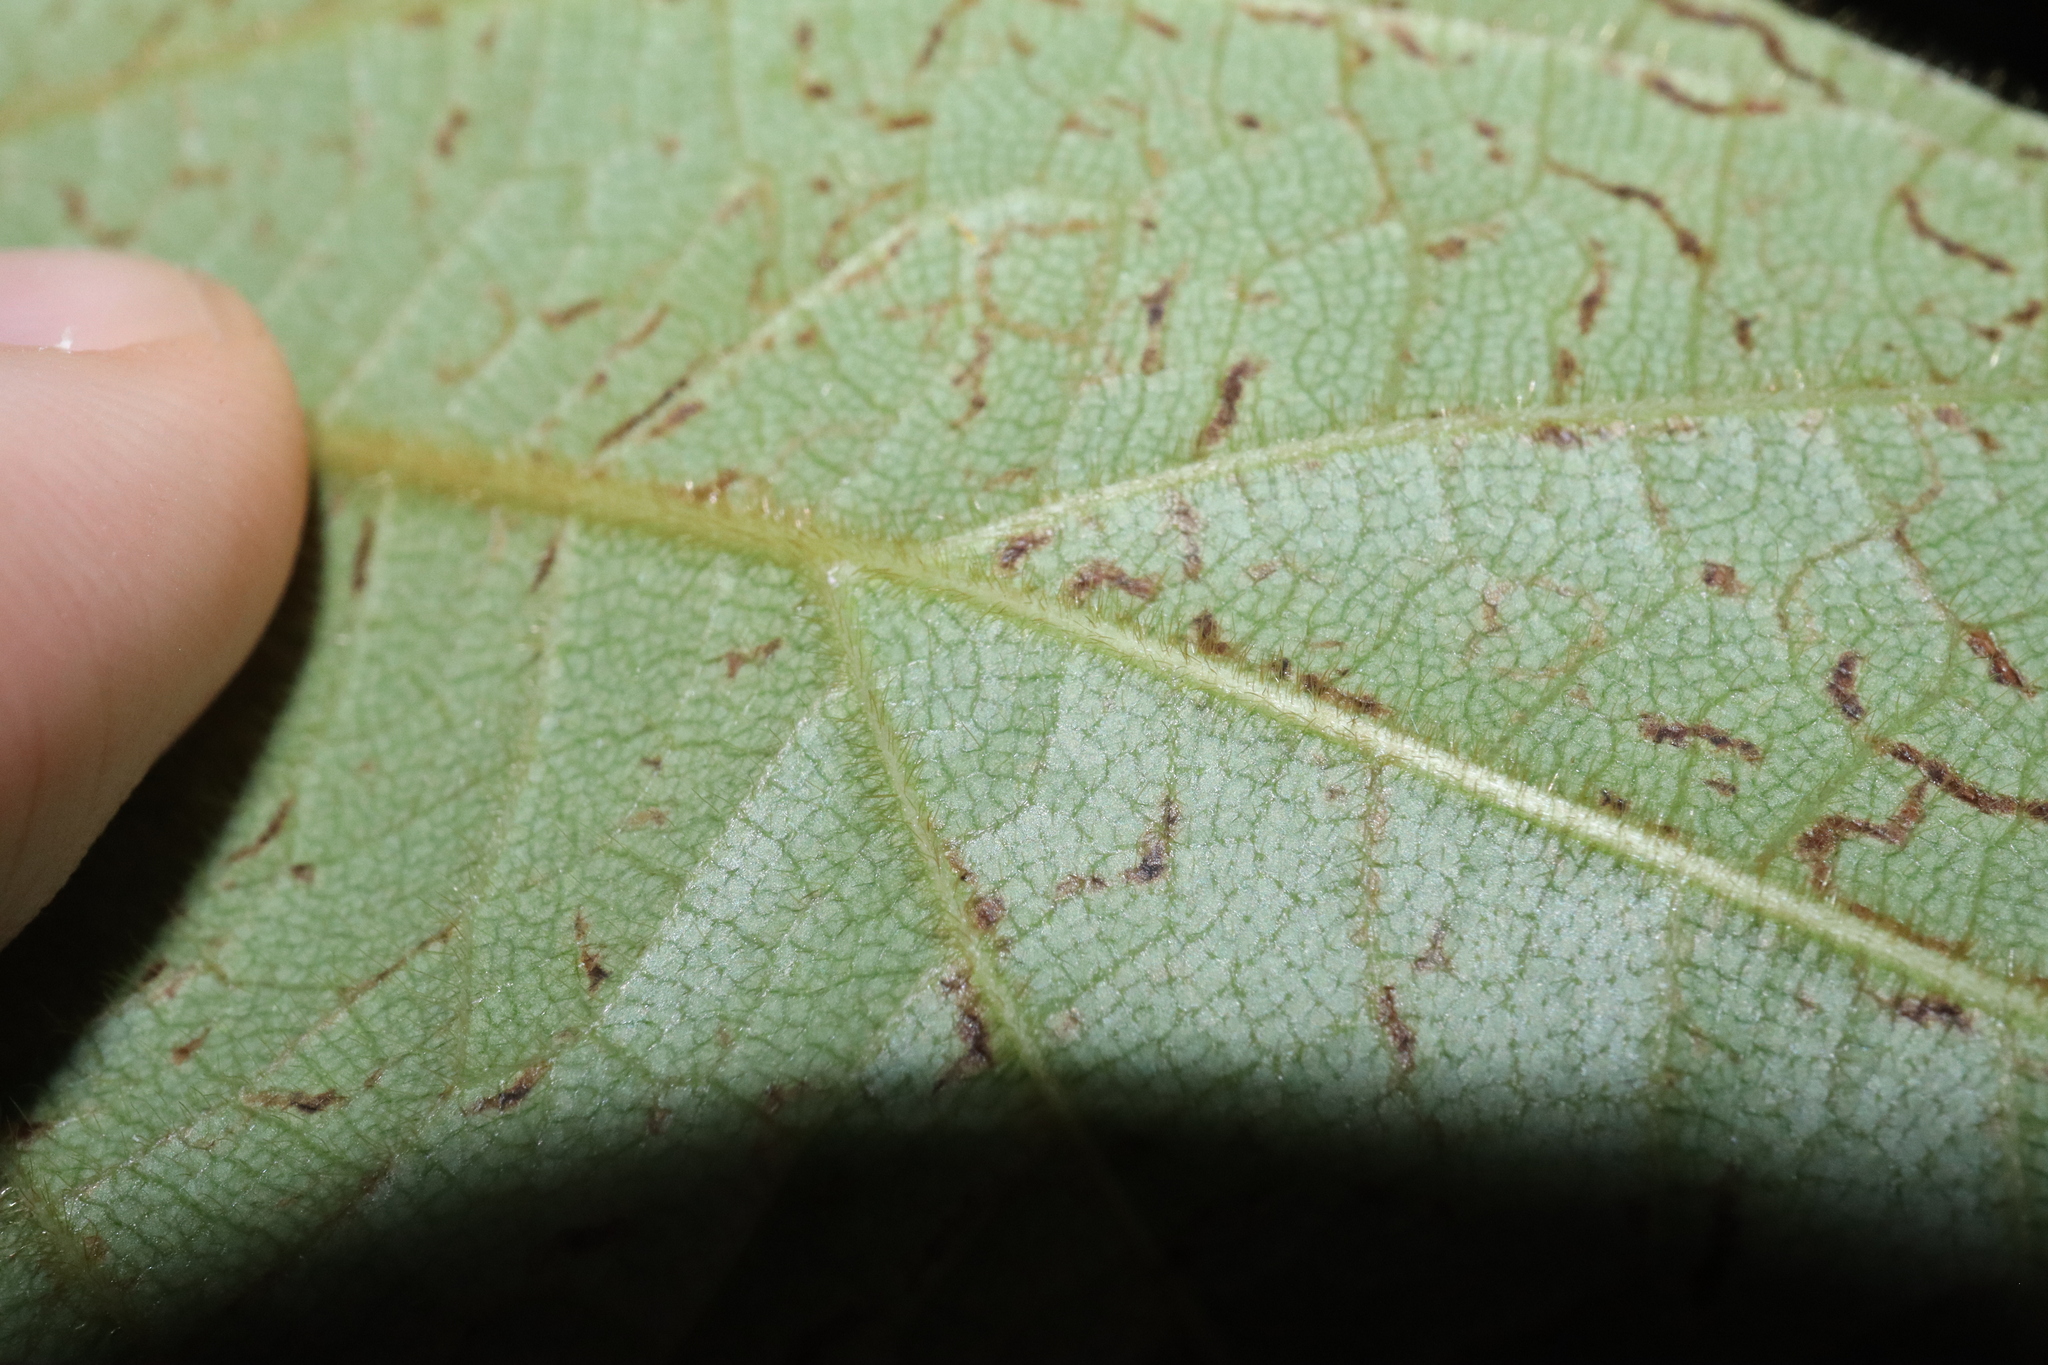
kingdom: Plantae
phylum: Tracheophyta
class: Magnoliopsida
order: Ranunculales
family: Menispermaceae
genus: Hypserpa
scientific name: Hypserpa decumbens
